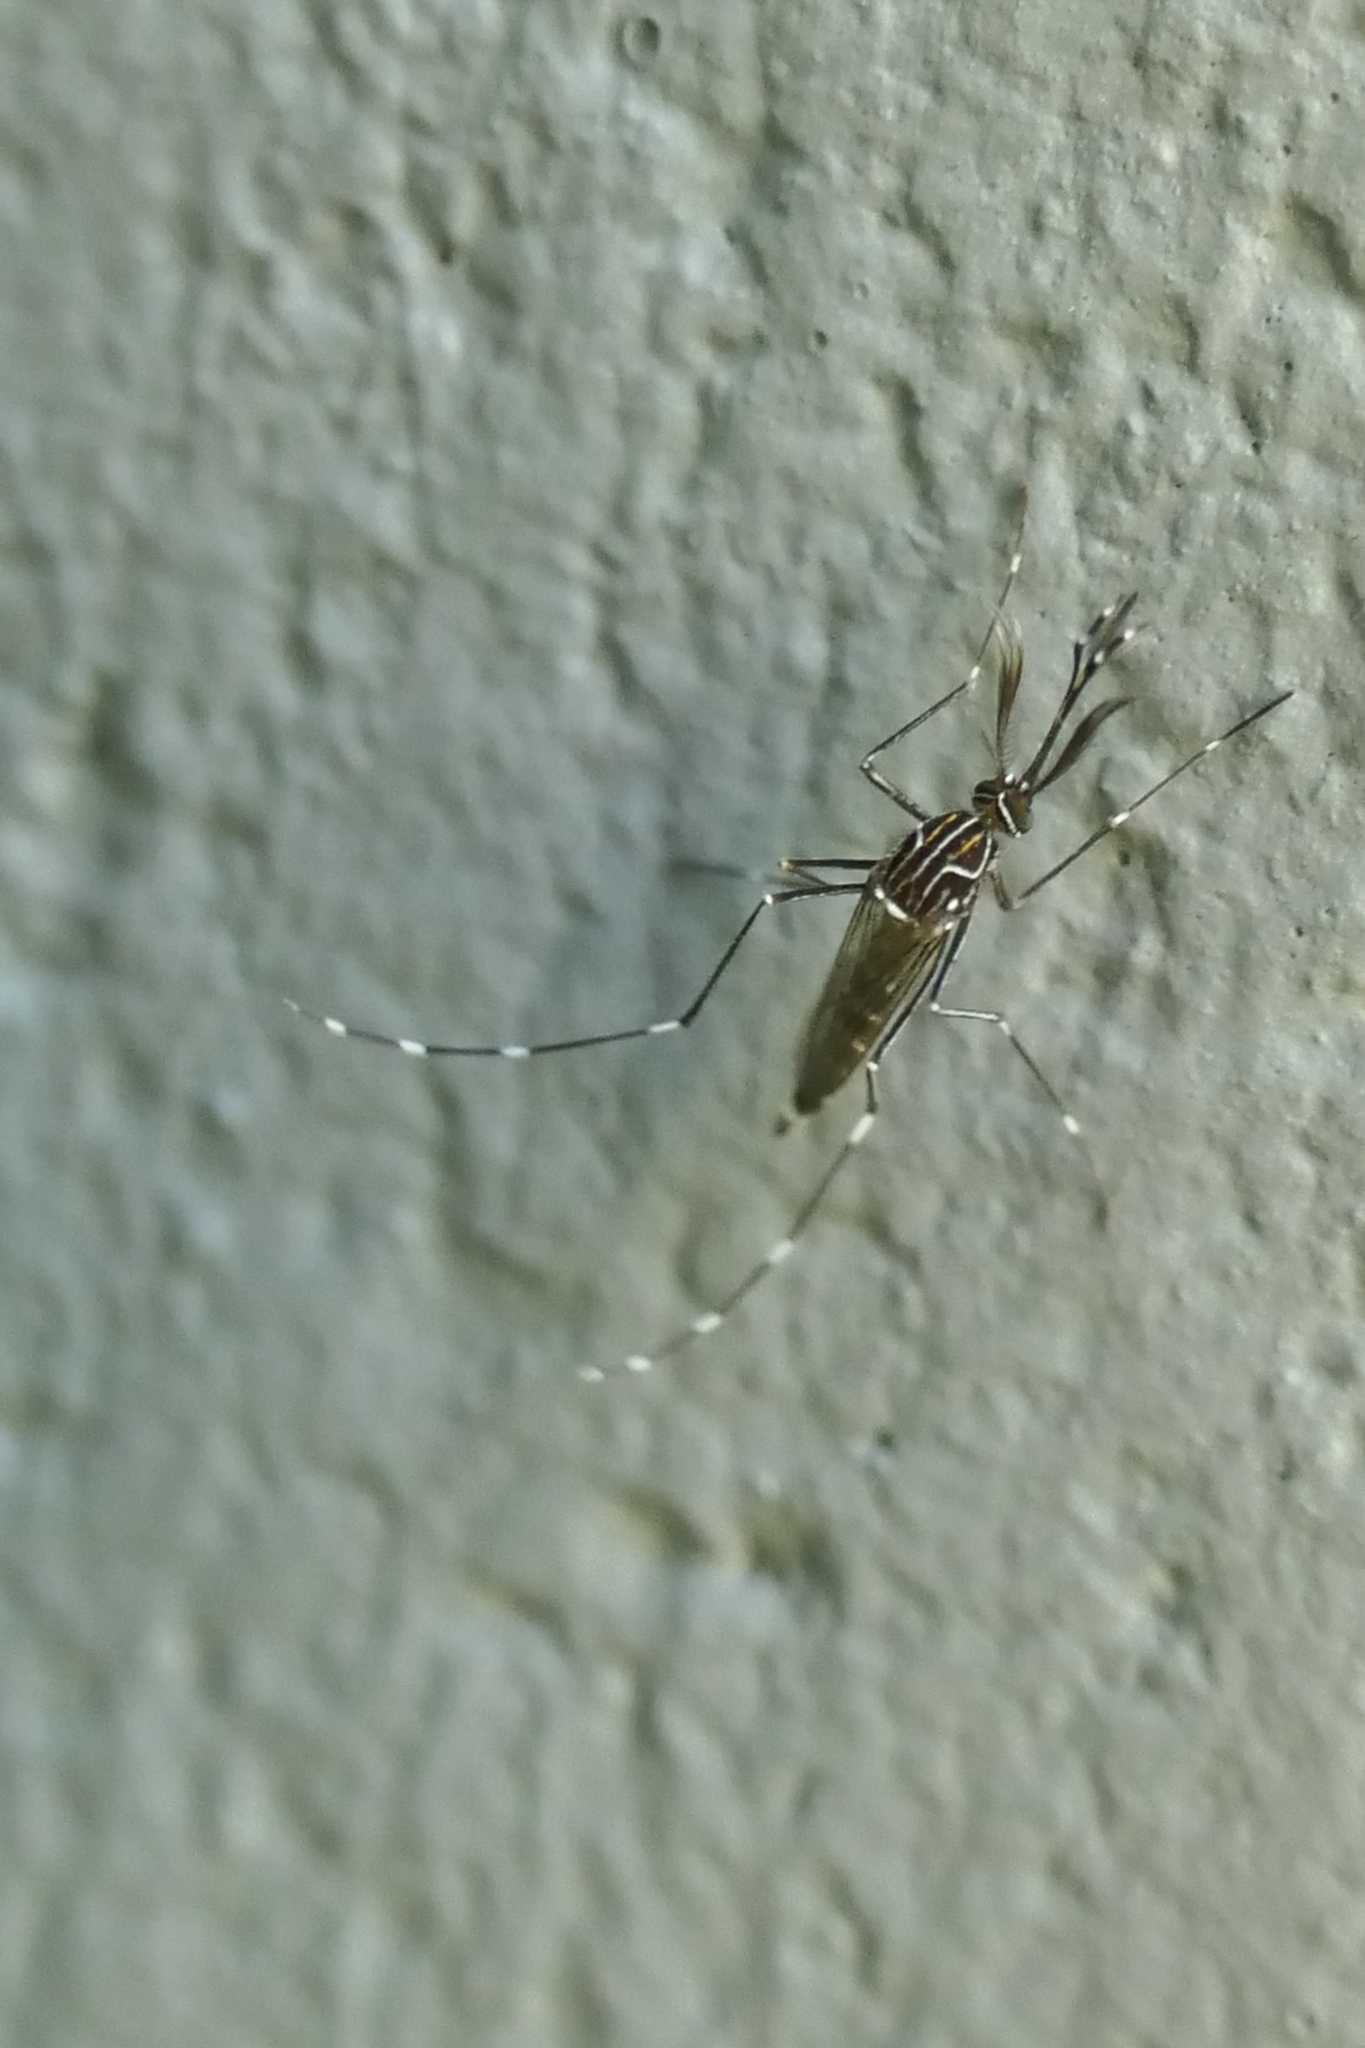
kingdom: Animalia
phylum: Arthropoda
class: Insecta
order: Diptera
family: Culicidae
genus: Aedes
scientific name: Aedes notoscriptus
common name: Australian backyard mosquito
